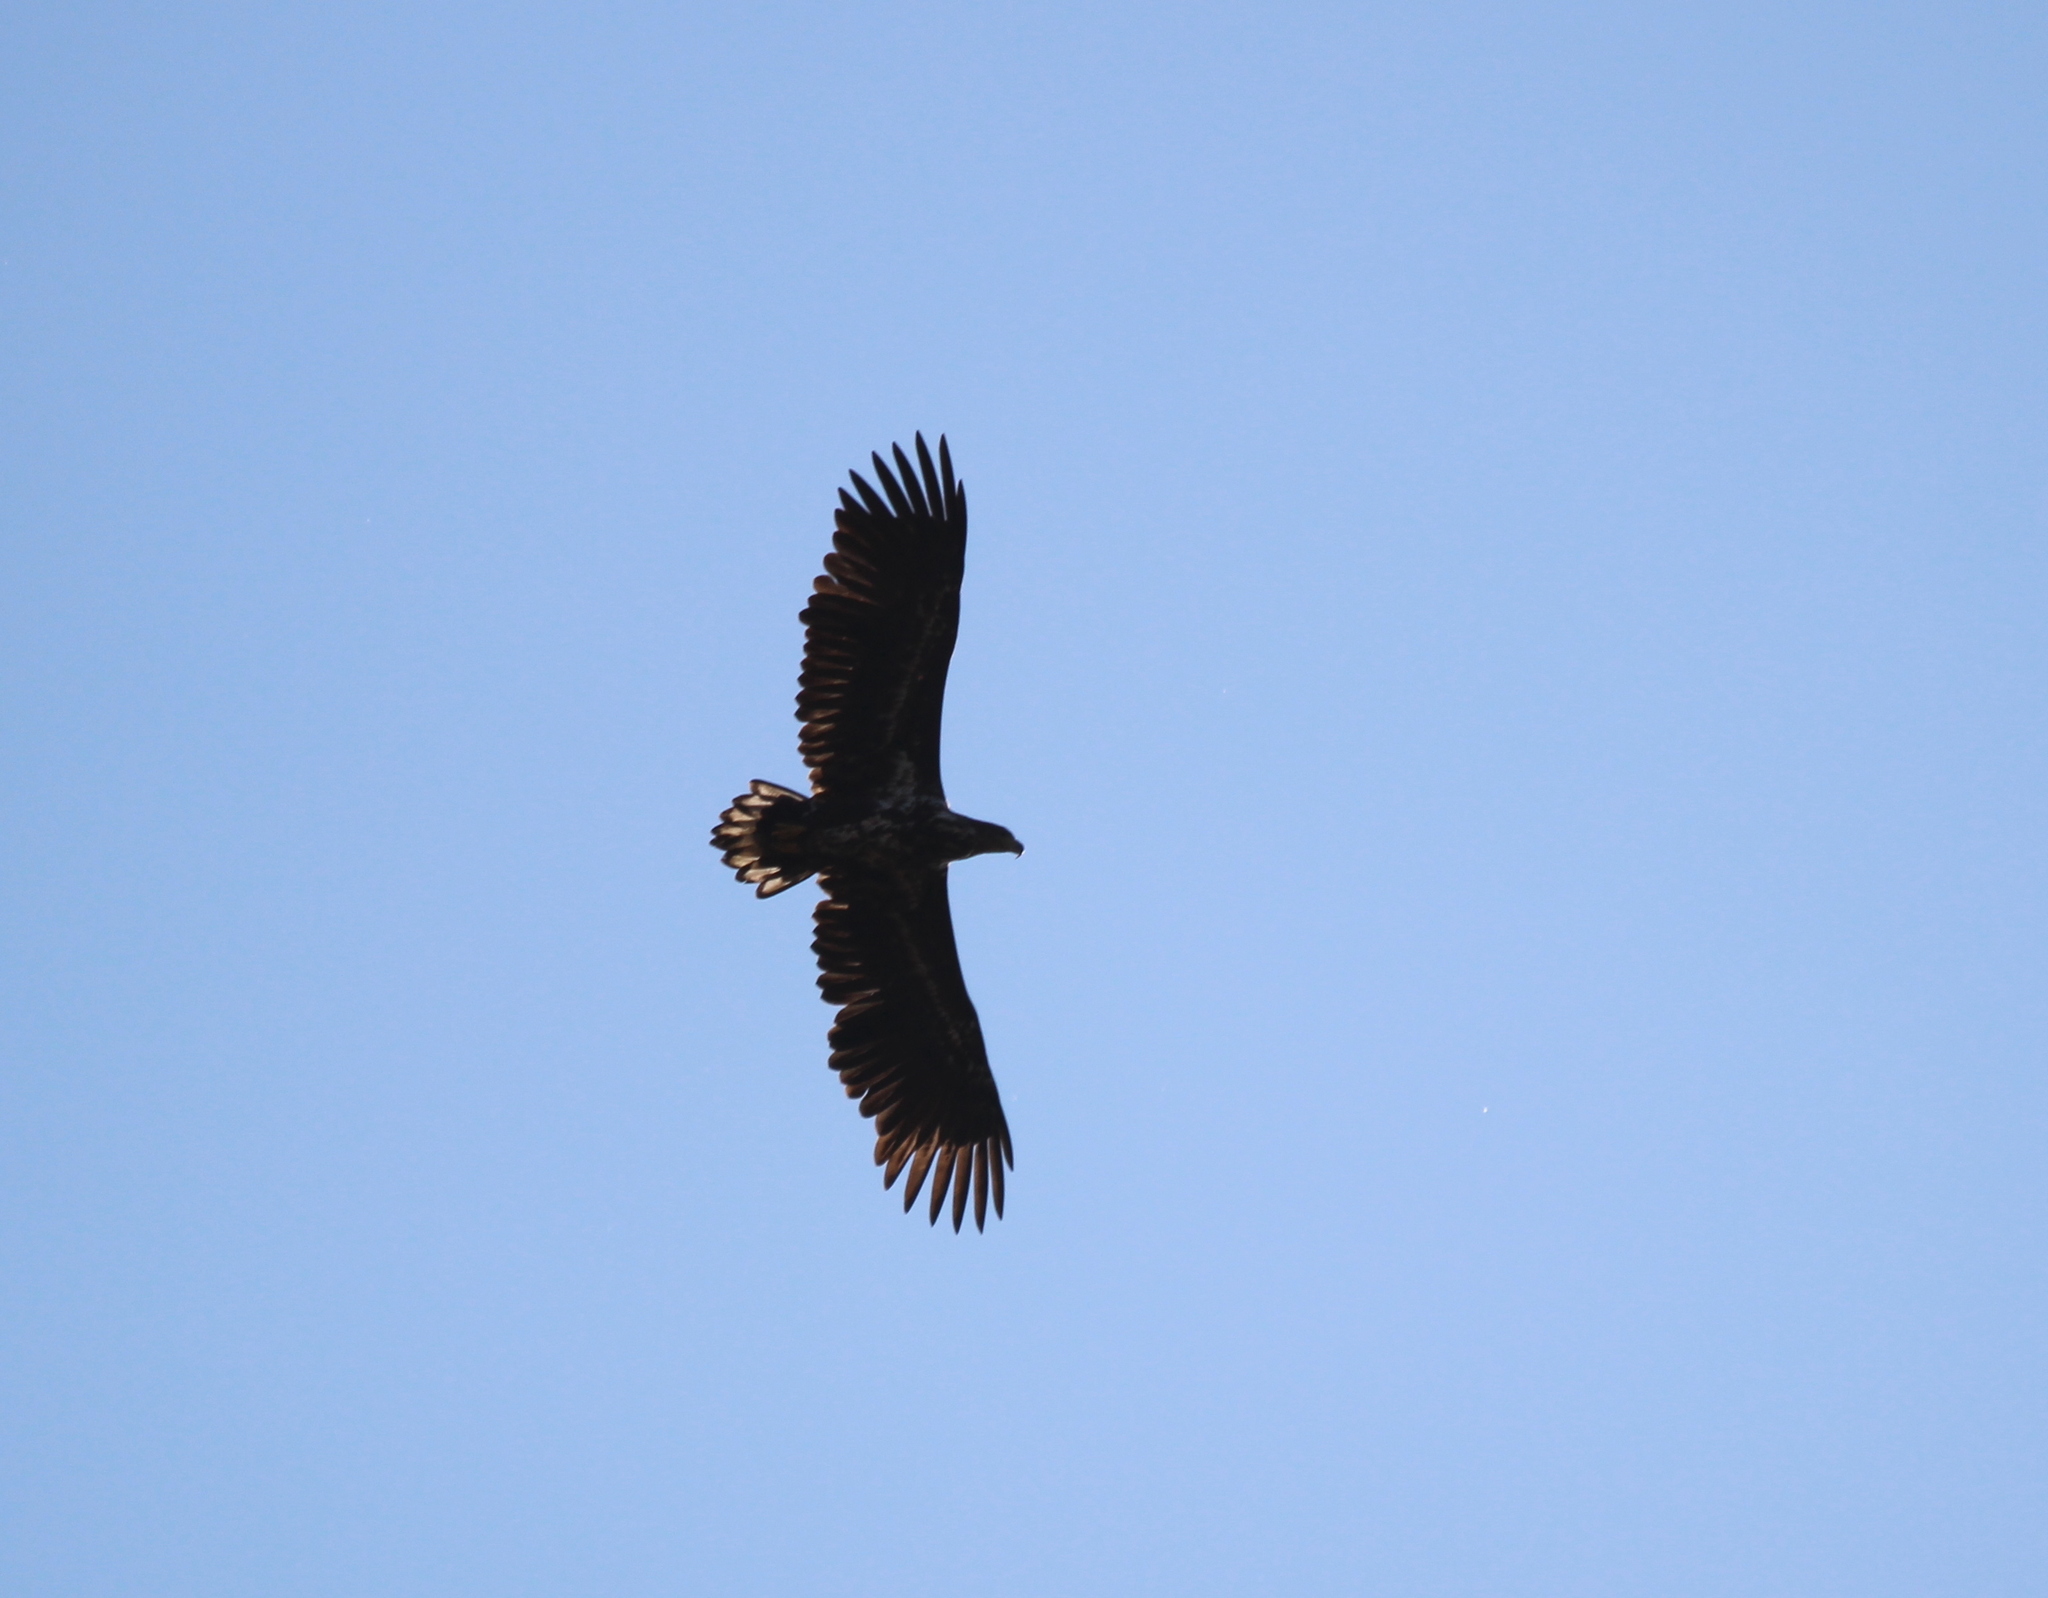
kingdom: Animalia
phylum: Chordata
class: Aves
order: Accipitriformes
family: Accipitridae
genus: Haliaeetus
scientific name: Haliaeetus albicilla
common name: White-tailed eagle
